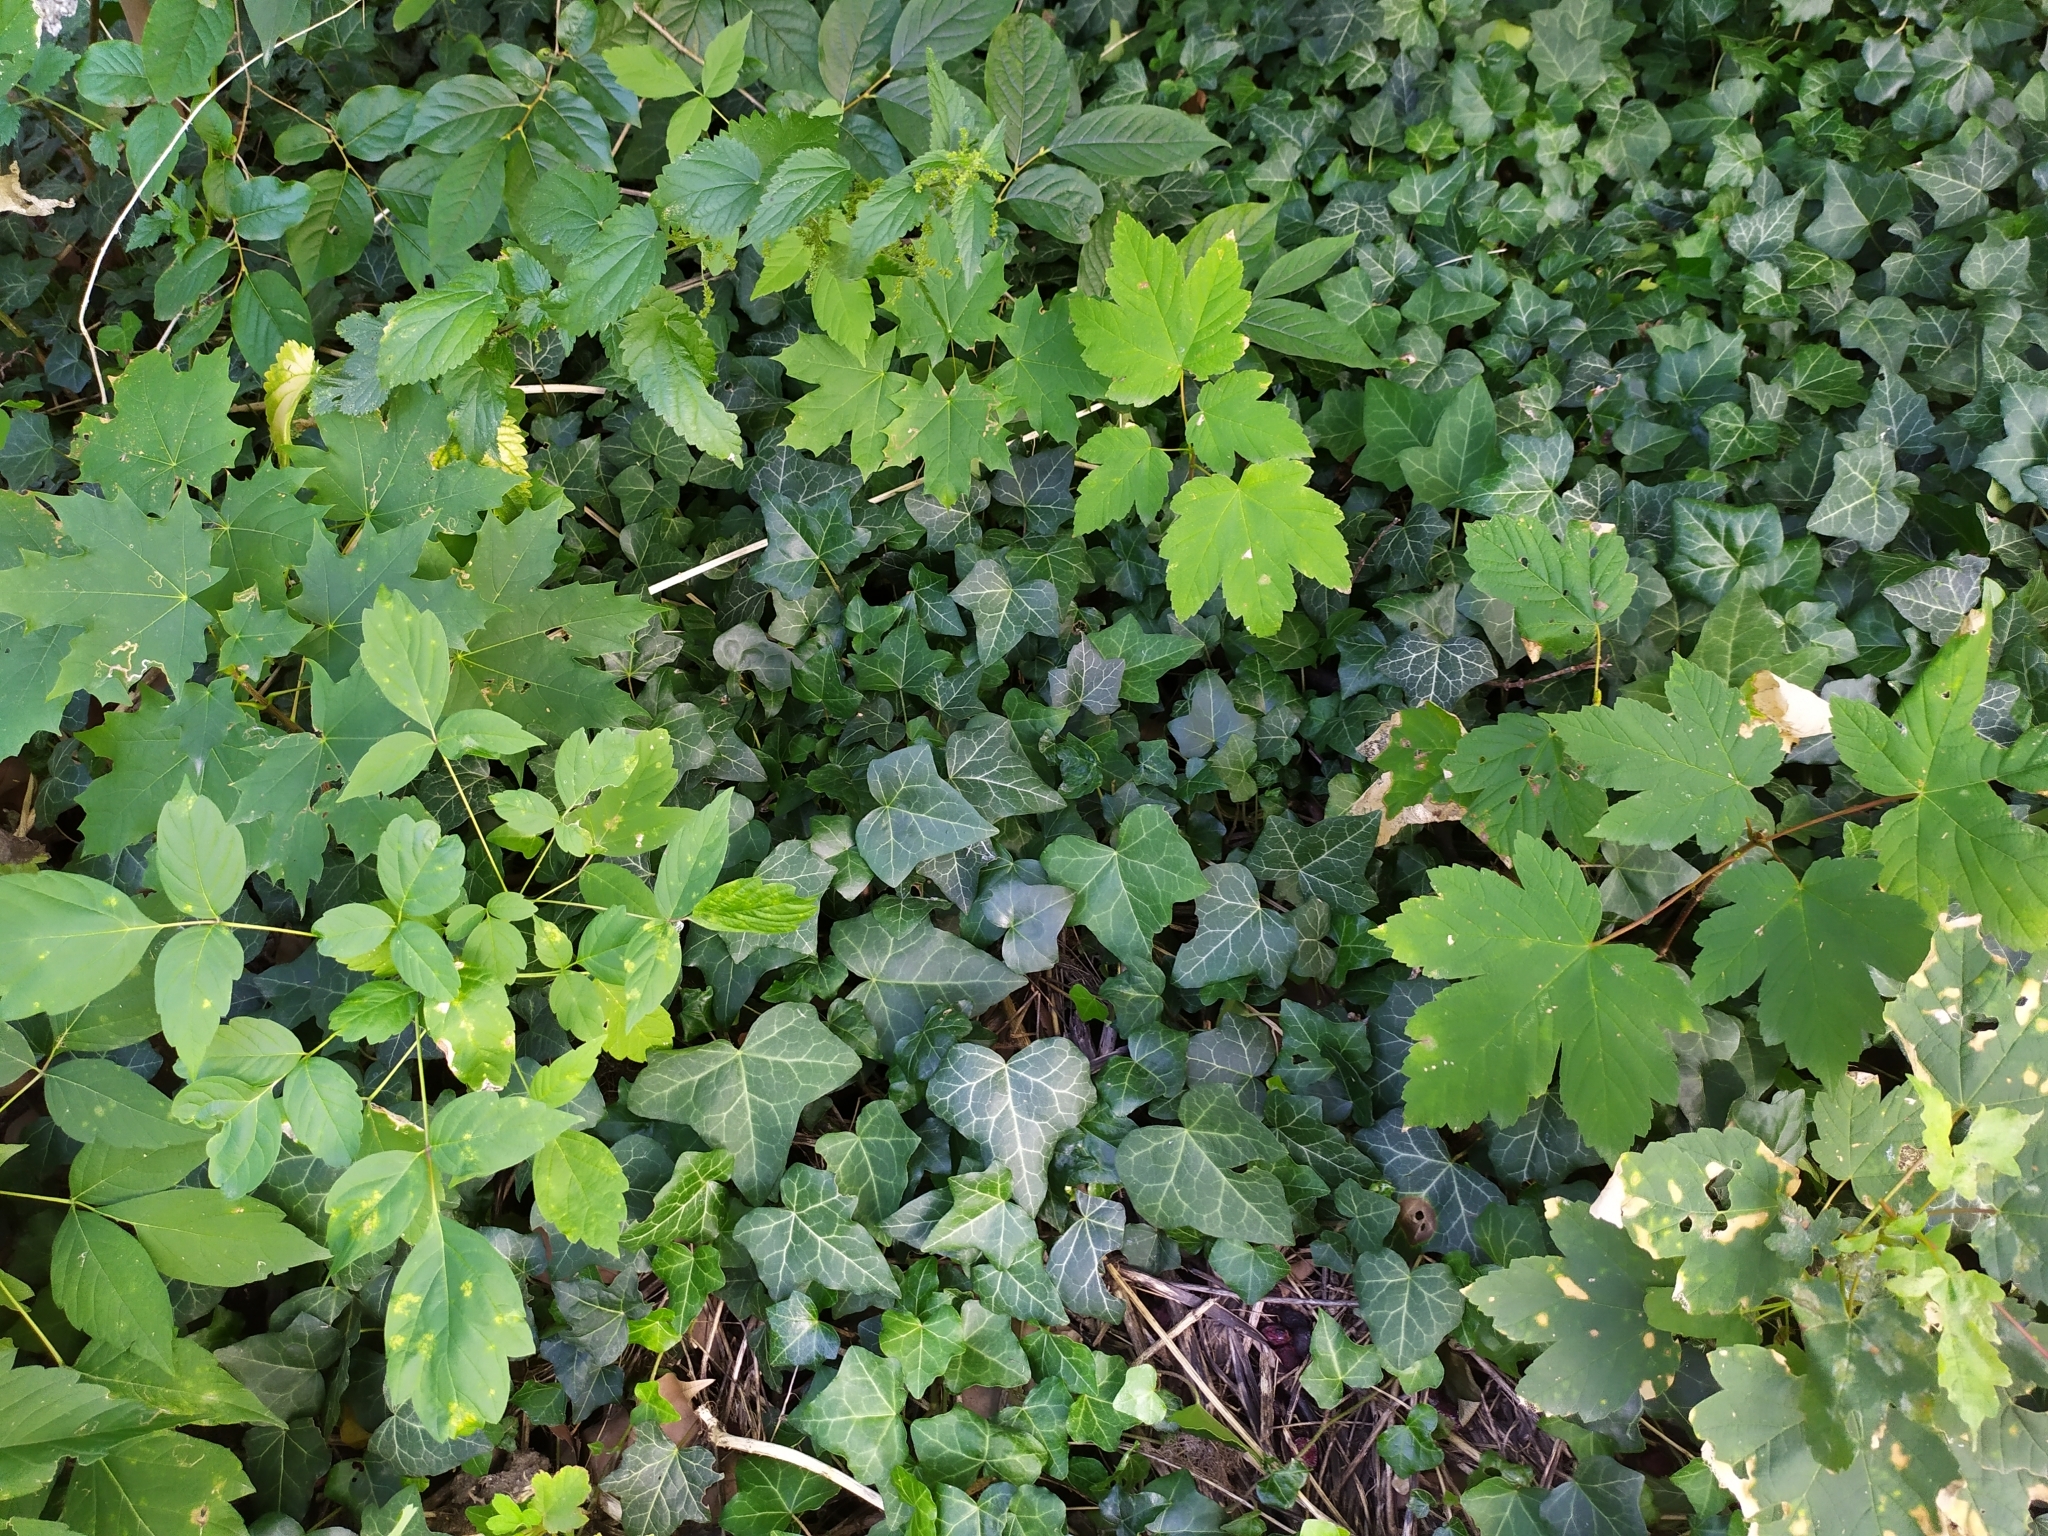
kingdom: Plantae
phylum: Tracheophyta
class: Magnoliopsida
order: Sapindales
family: Sapindaceae
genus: Acer
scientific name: Acer negundo
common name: Ashleaf maple
